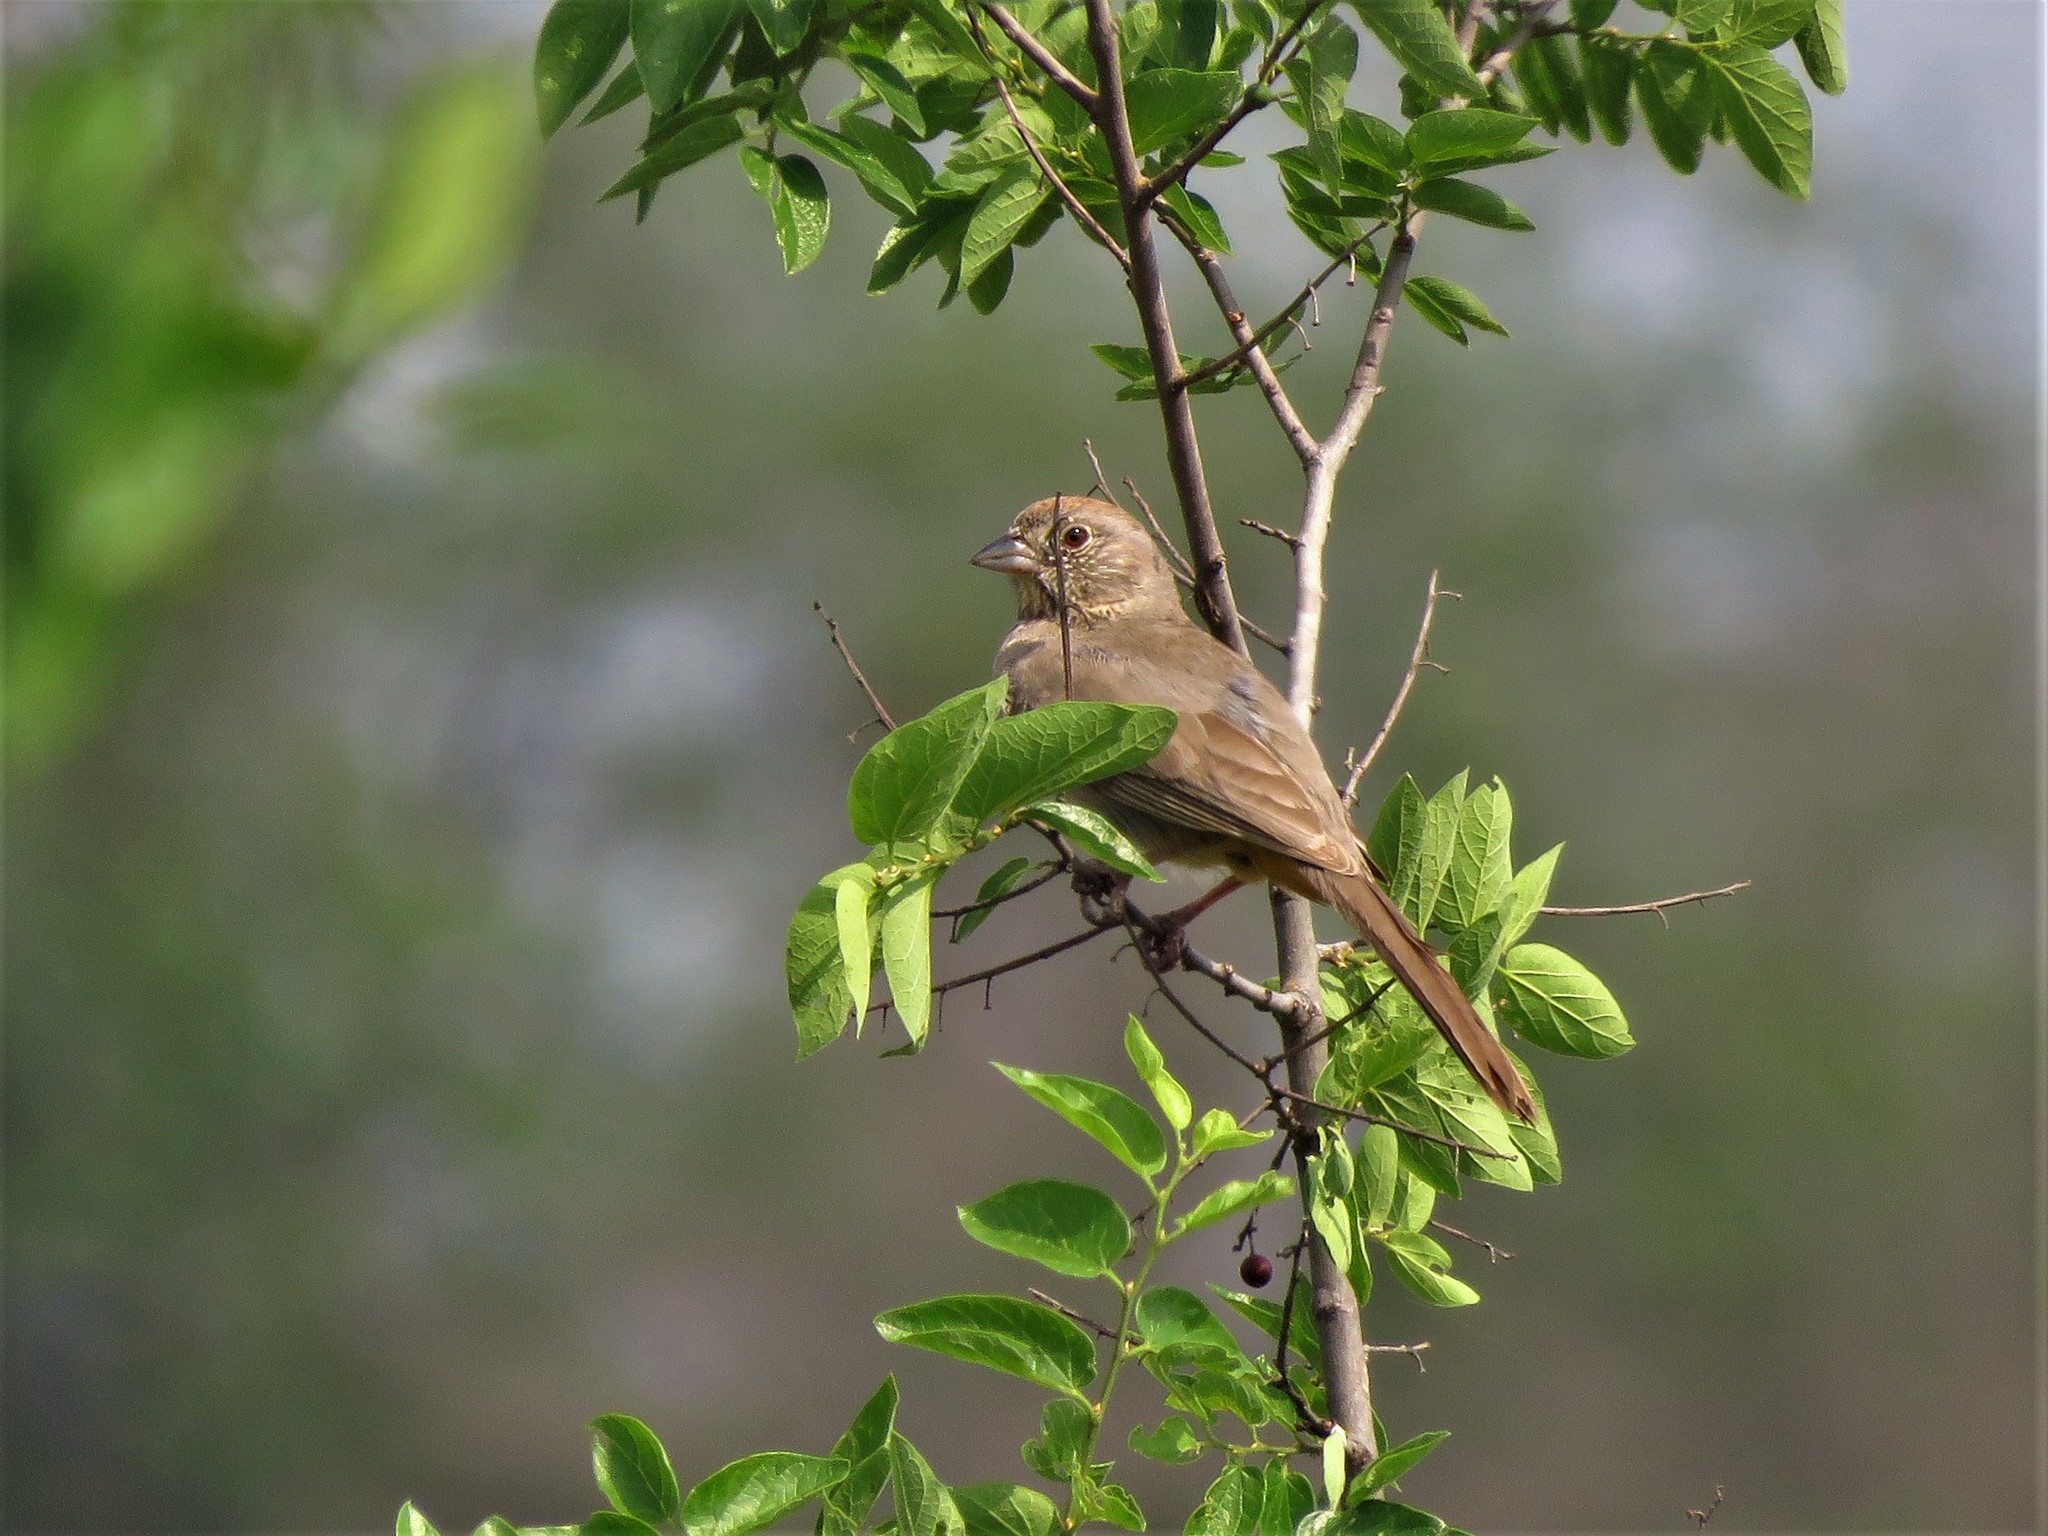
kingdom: Animalia
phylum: Chordata
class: Aves
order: Passeriformes
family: Passerellidae
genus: Melozone
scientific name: Melozone fusca
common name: Canyon towhee
